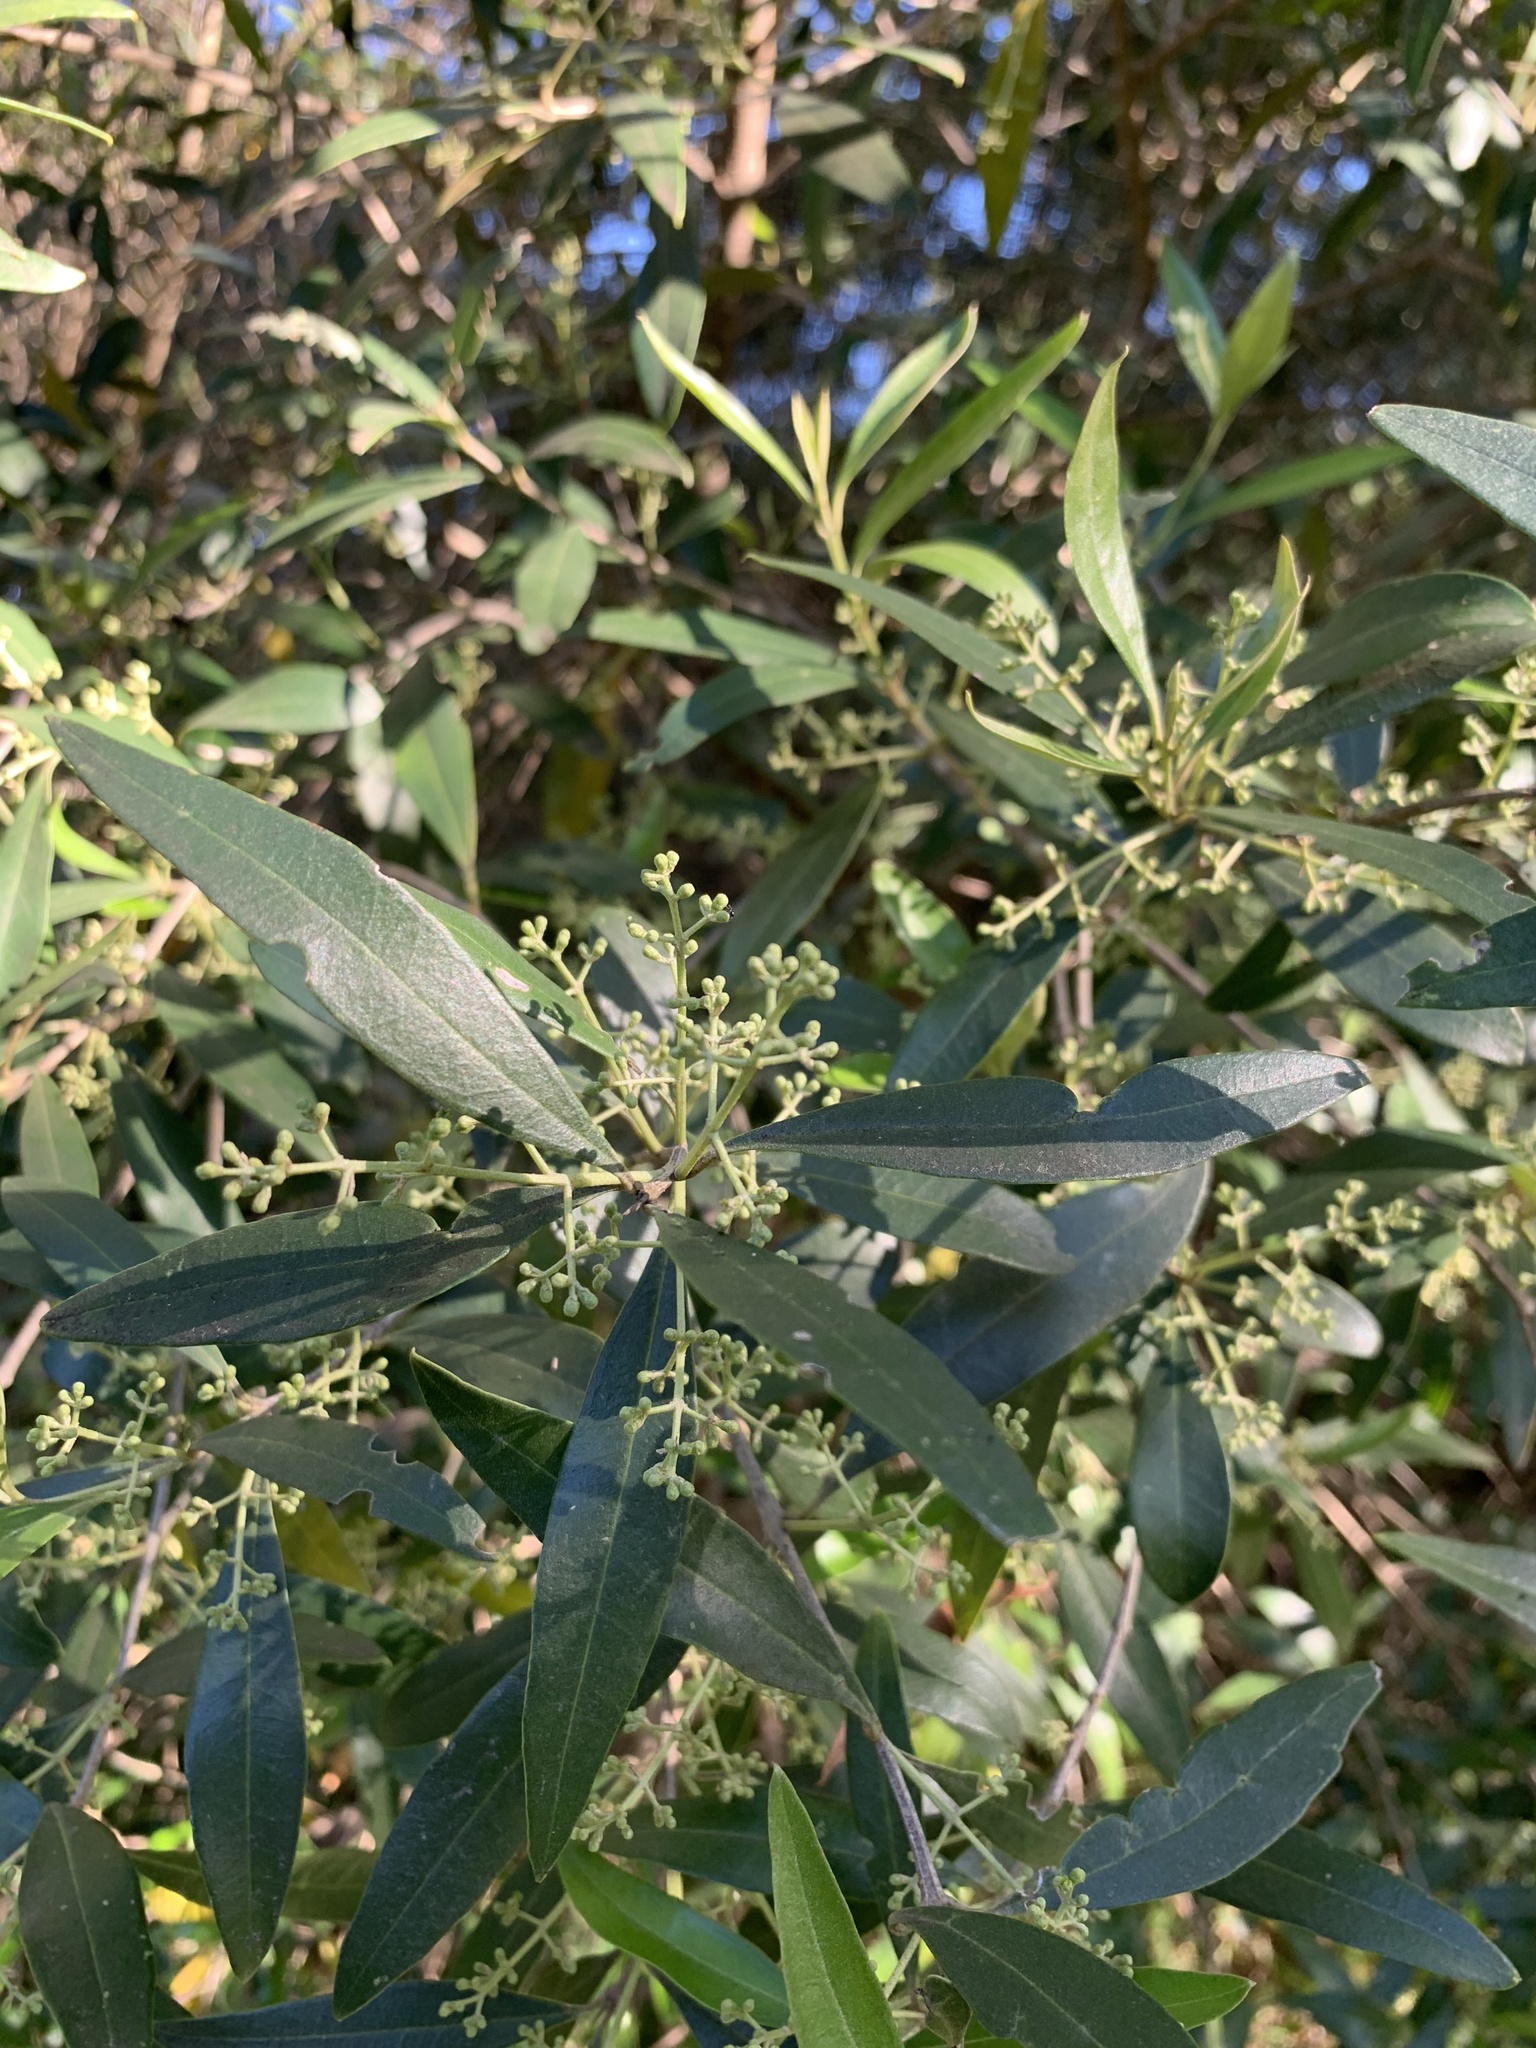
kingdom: Plantae
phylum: Tracheophyta
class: Magnoliopsida
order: Lamiales
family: Oleaceae
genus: Olea
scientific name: Olea europaea
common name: Olive
